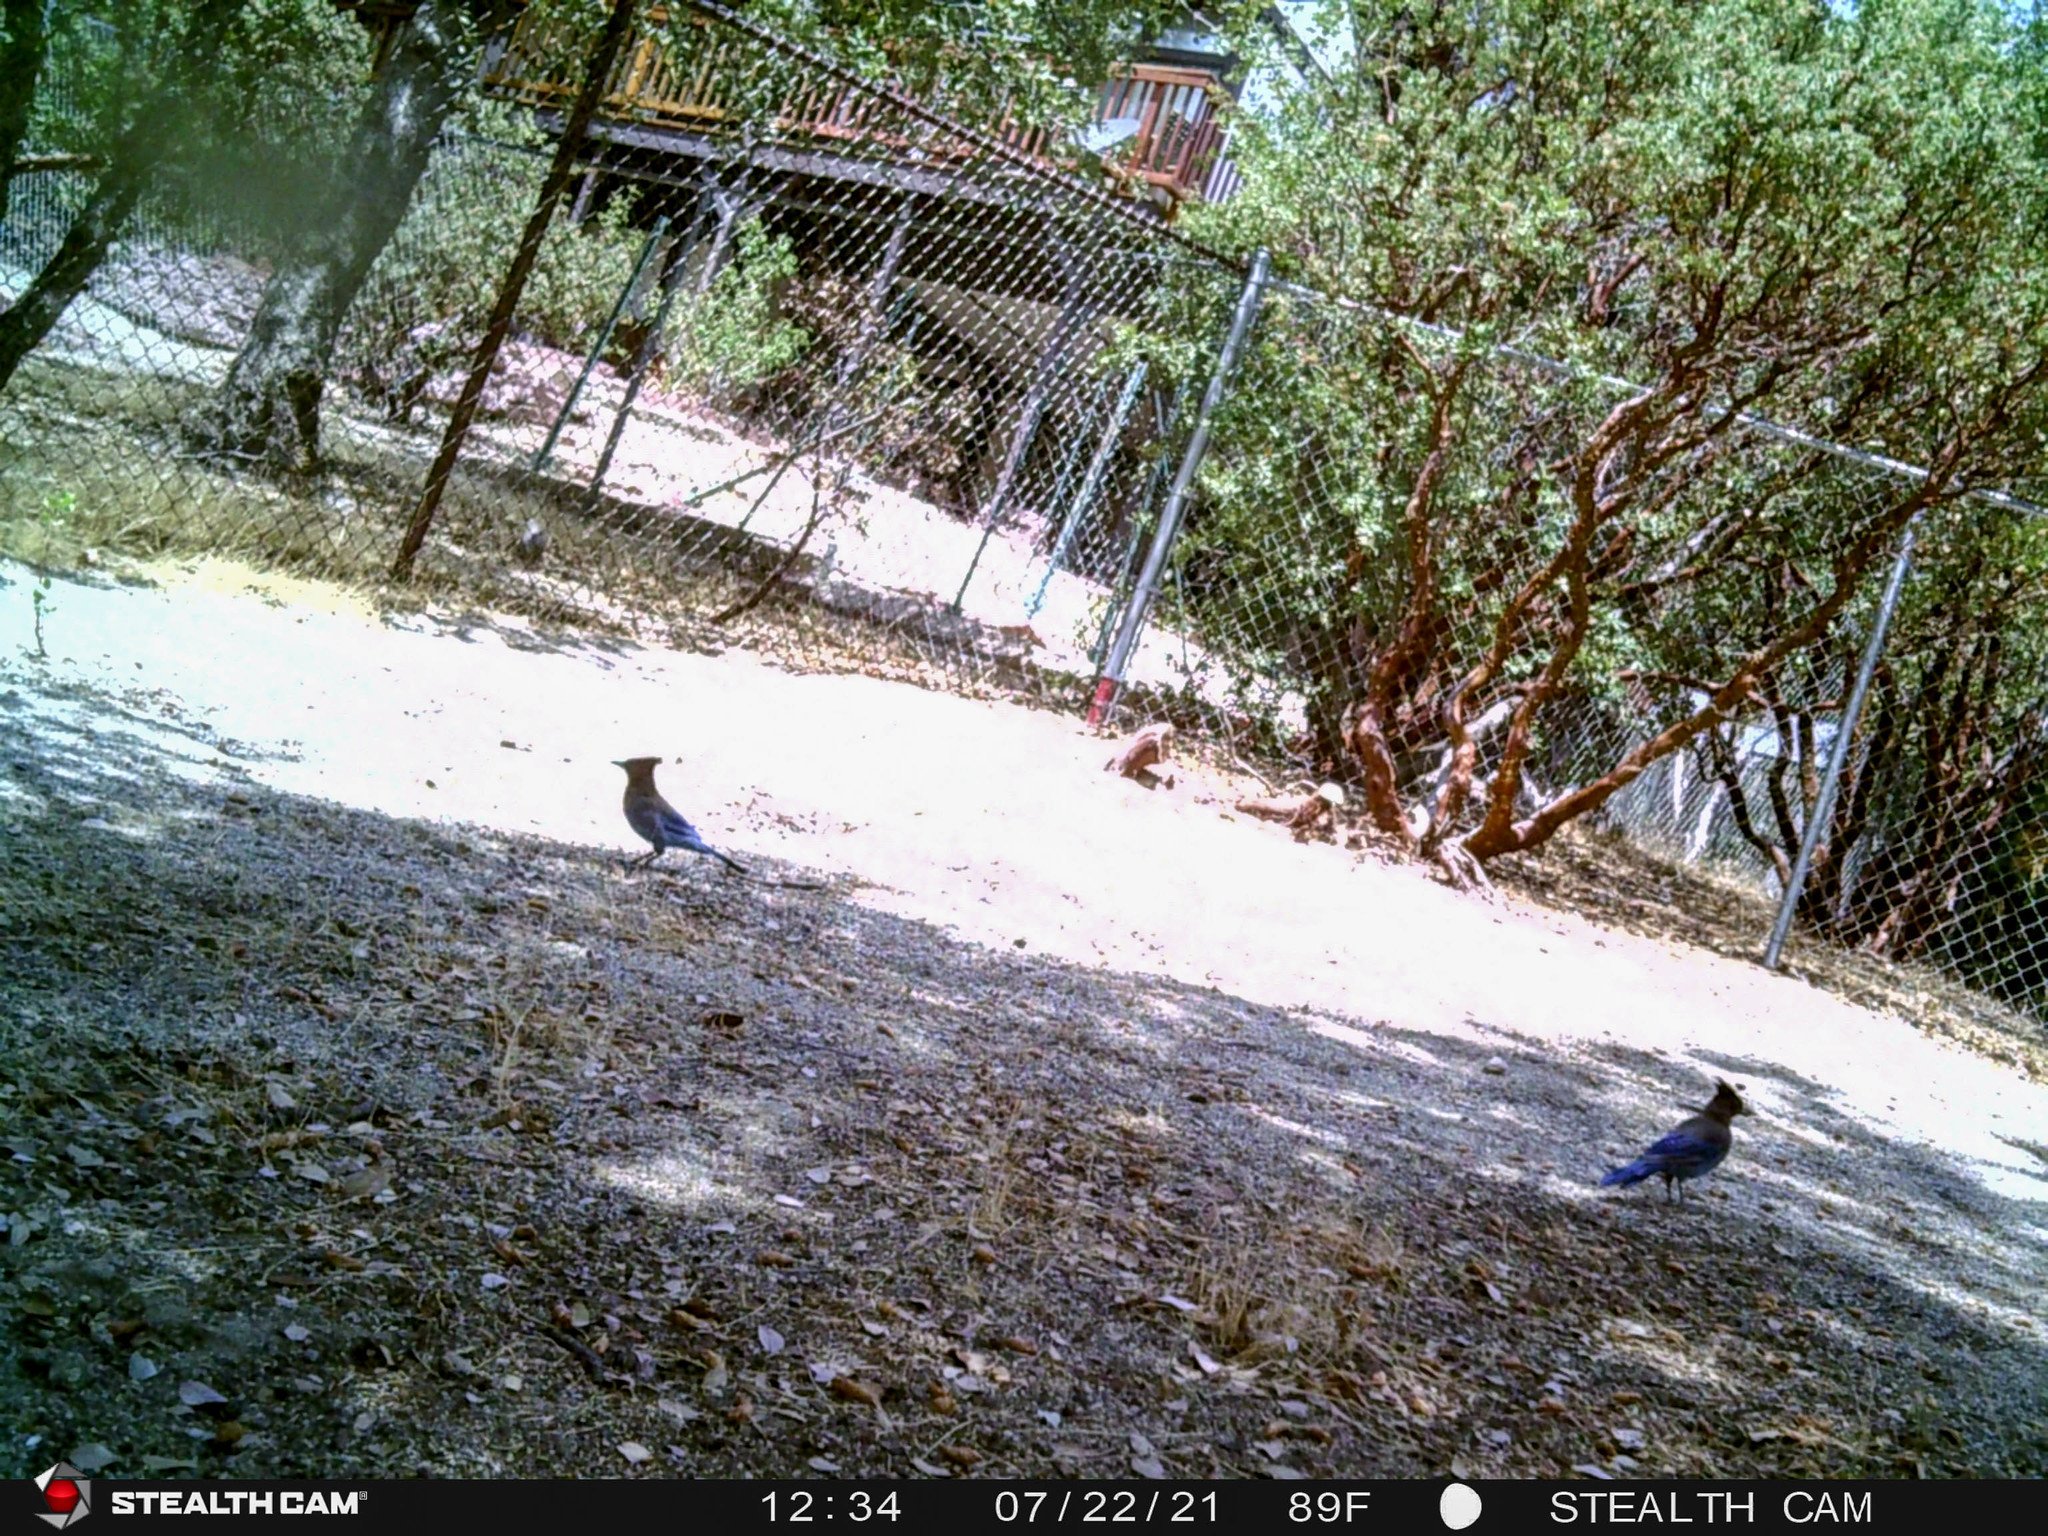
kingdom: Animalia
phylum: Chordata
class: Aves
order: Passeriformes
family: Corvidae
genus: Cyanocitta
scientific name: Cyanocitta stelleri
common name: Steller's jay
